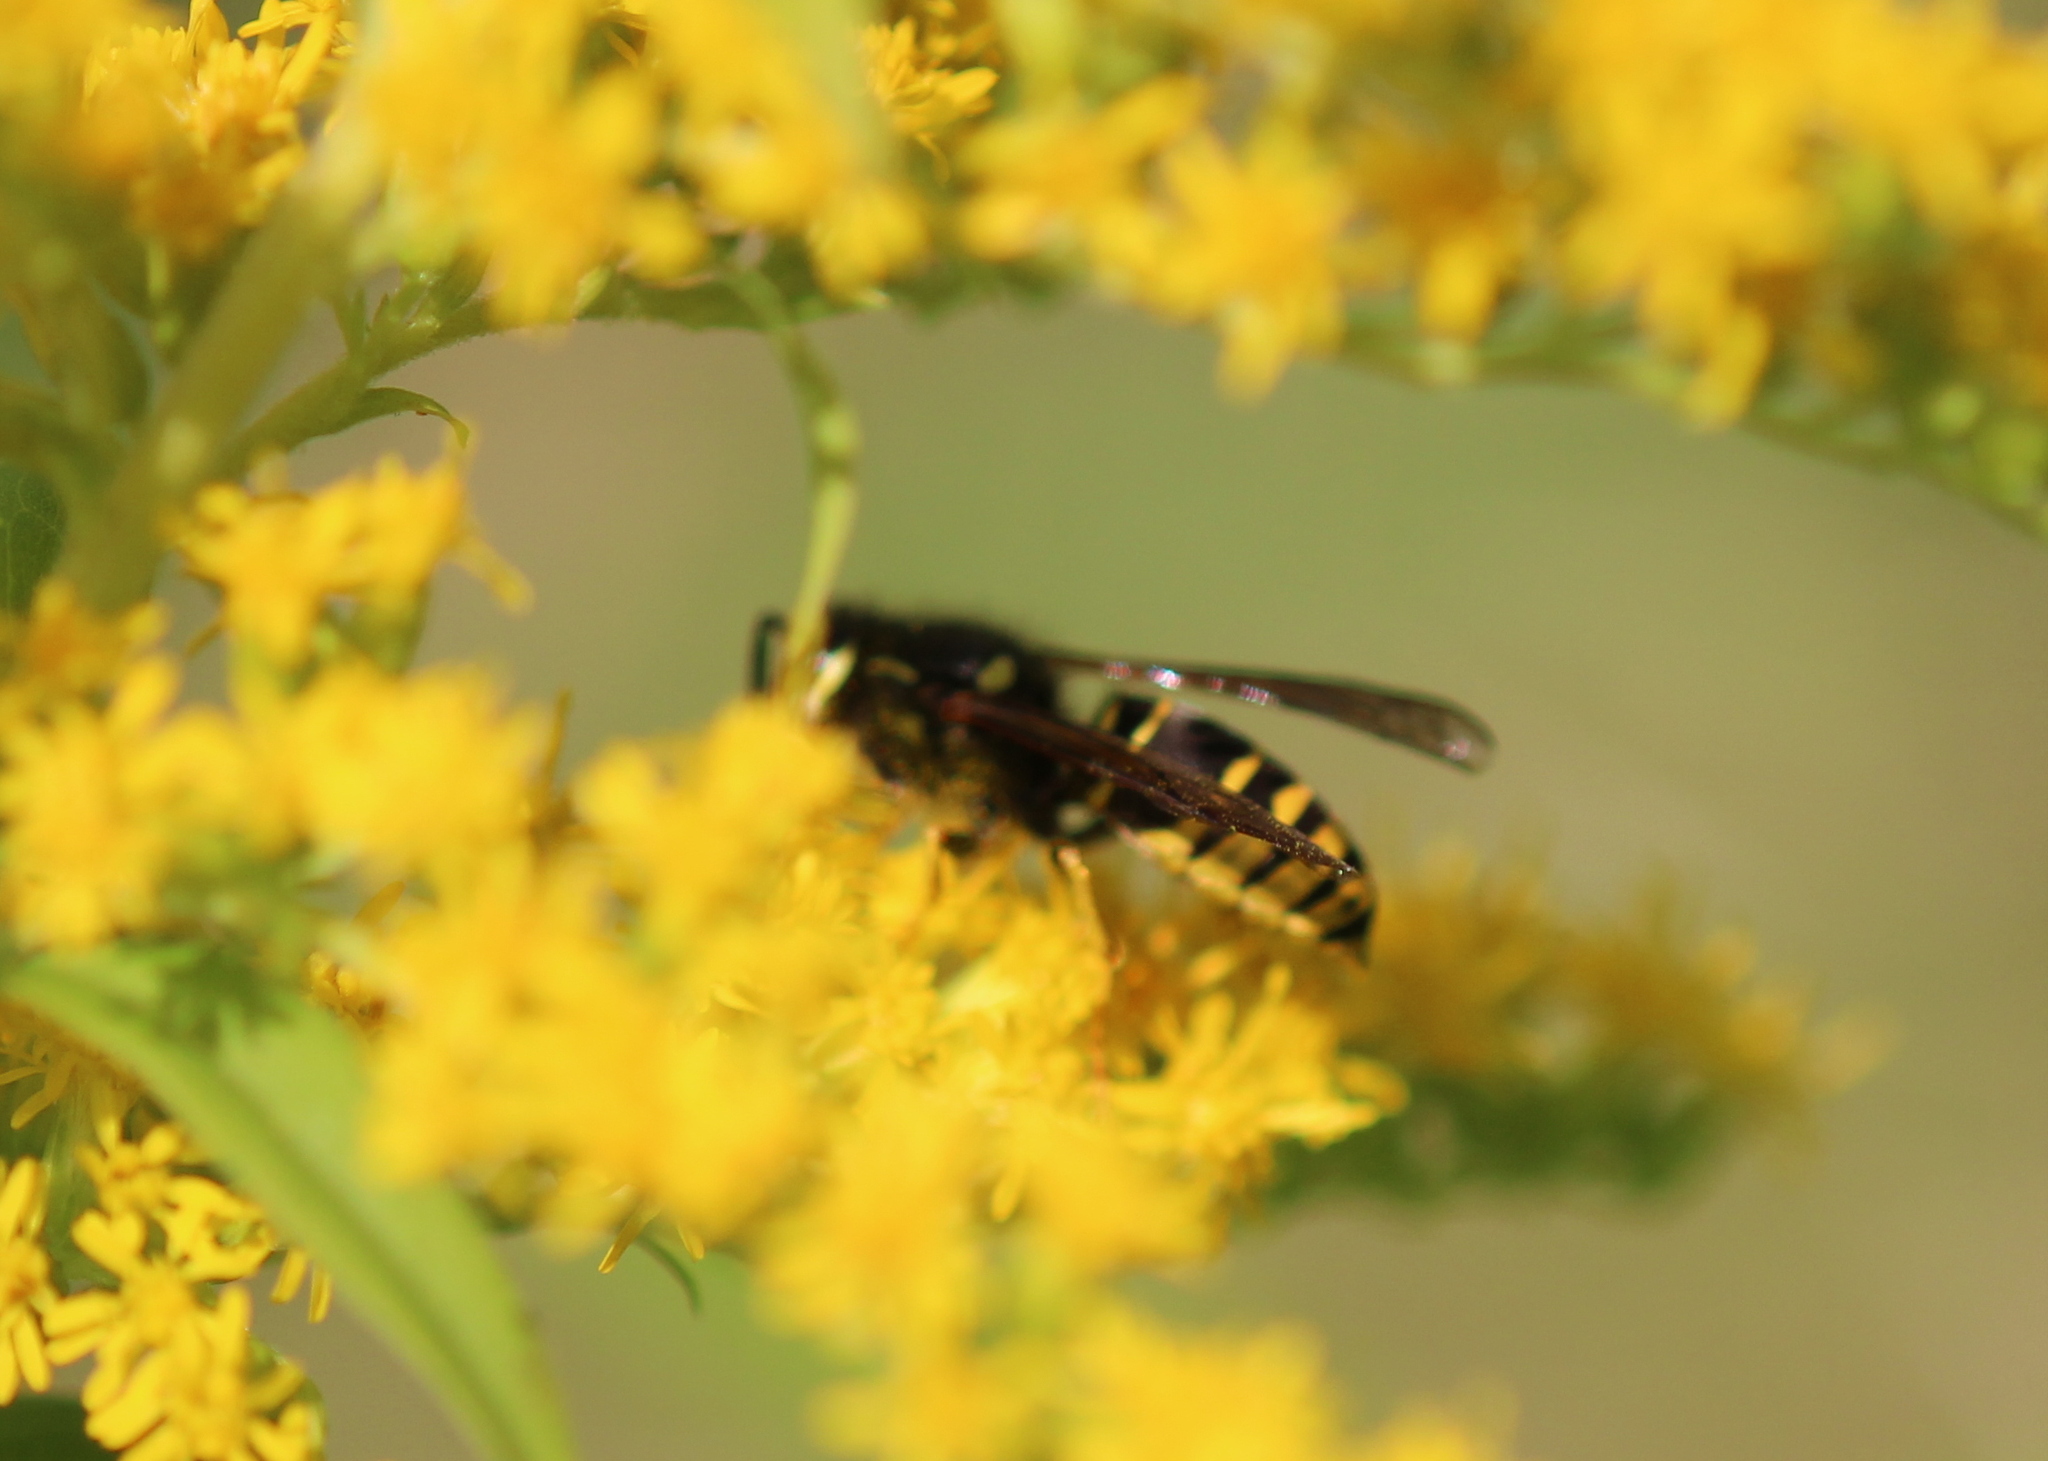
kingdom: Animalia
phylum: Arthropoda
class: Insecta
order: Hymenoptera
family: Vespidae
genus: Vespula
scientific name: Vespula vidua
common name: Widow yellowjacket
